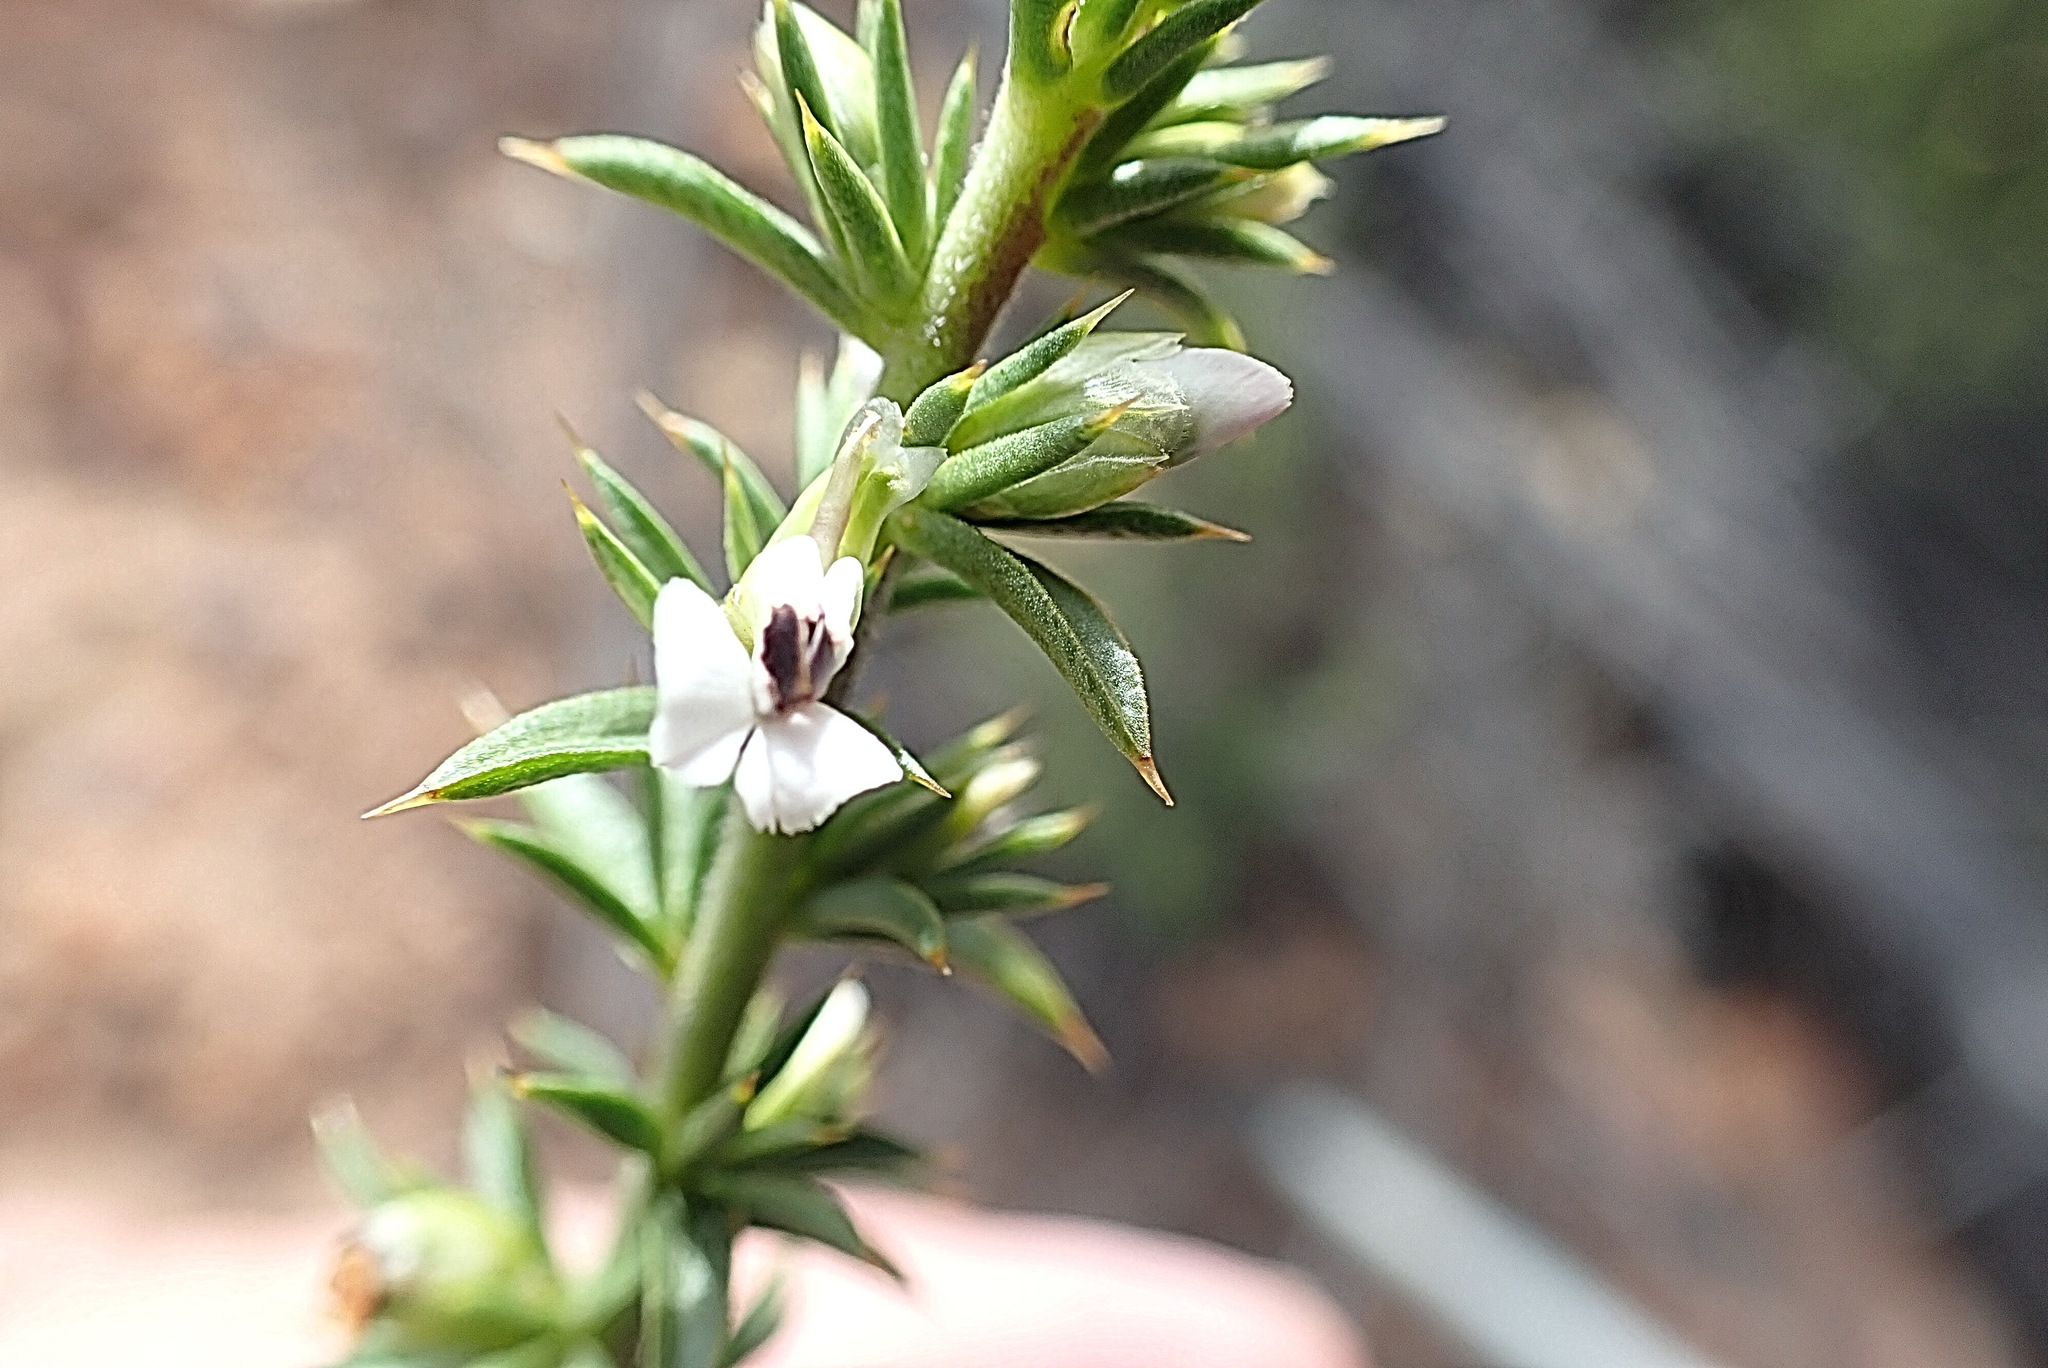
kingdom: Plantae
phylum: Tracheophyta
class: Magnoliopsida
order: Fabales
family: Polygalaceae
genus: Muraltia
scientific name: Muraltia ericifolia
